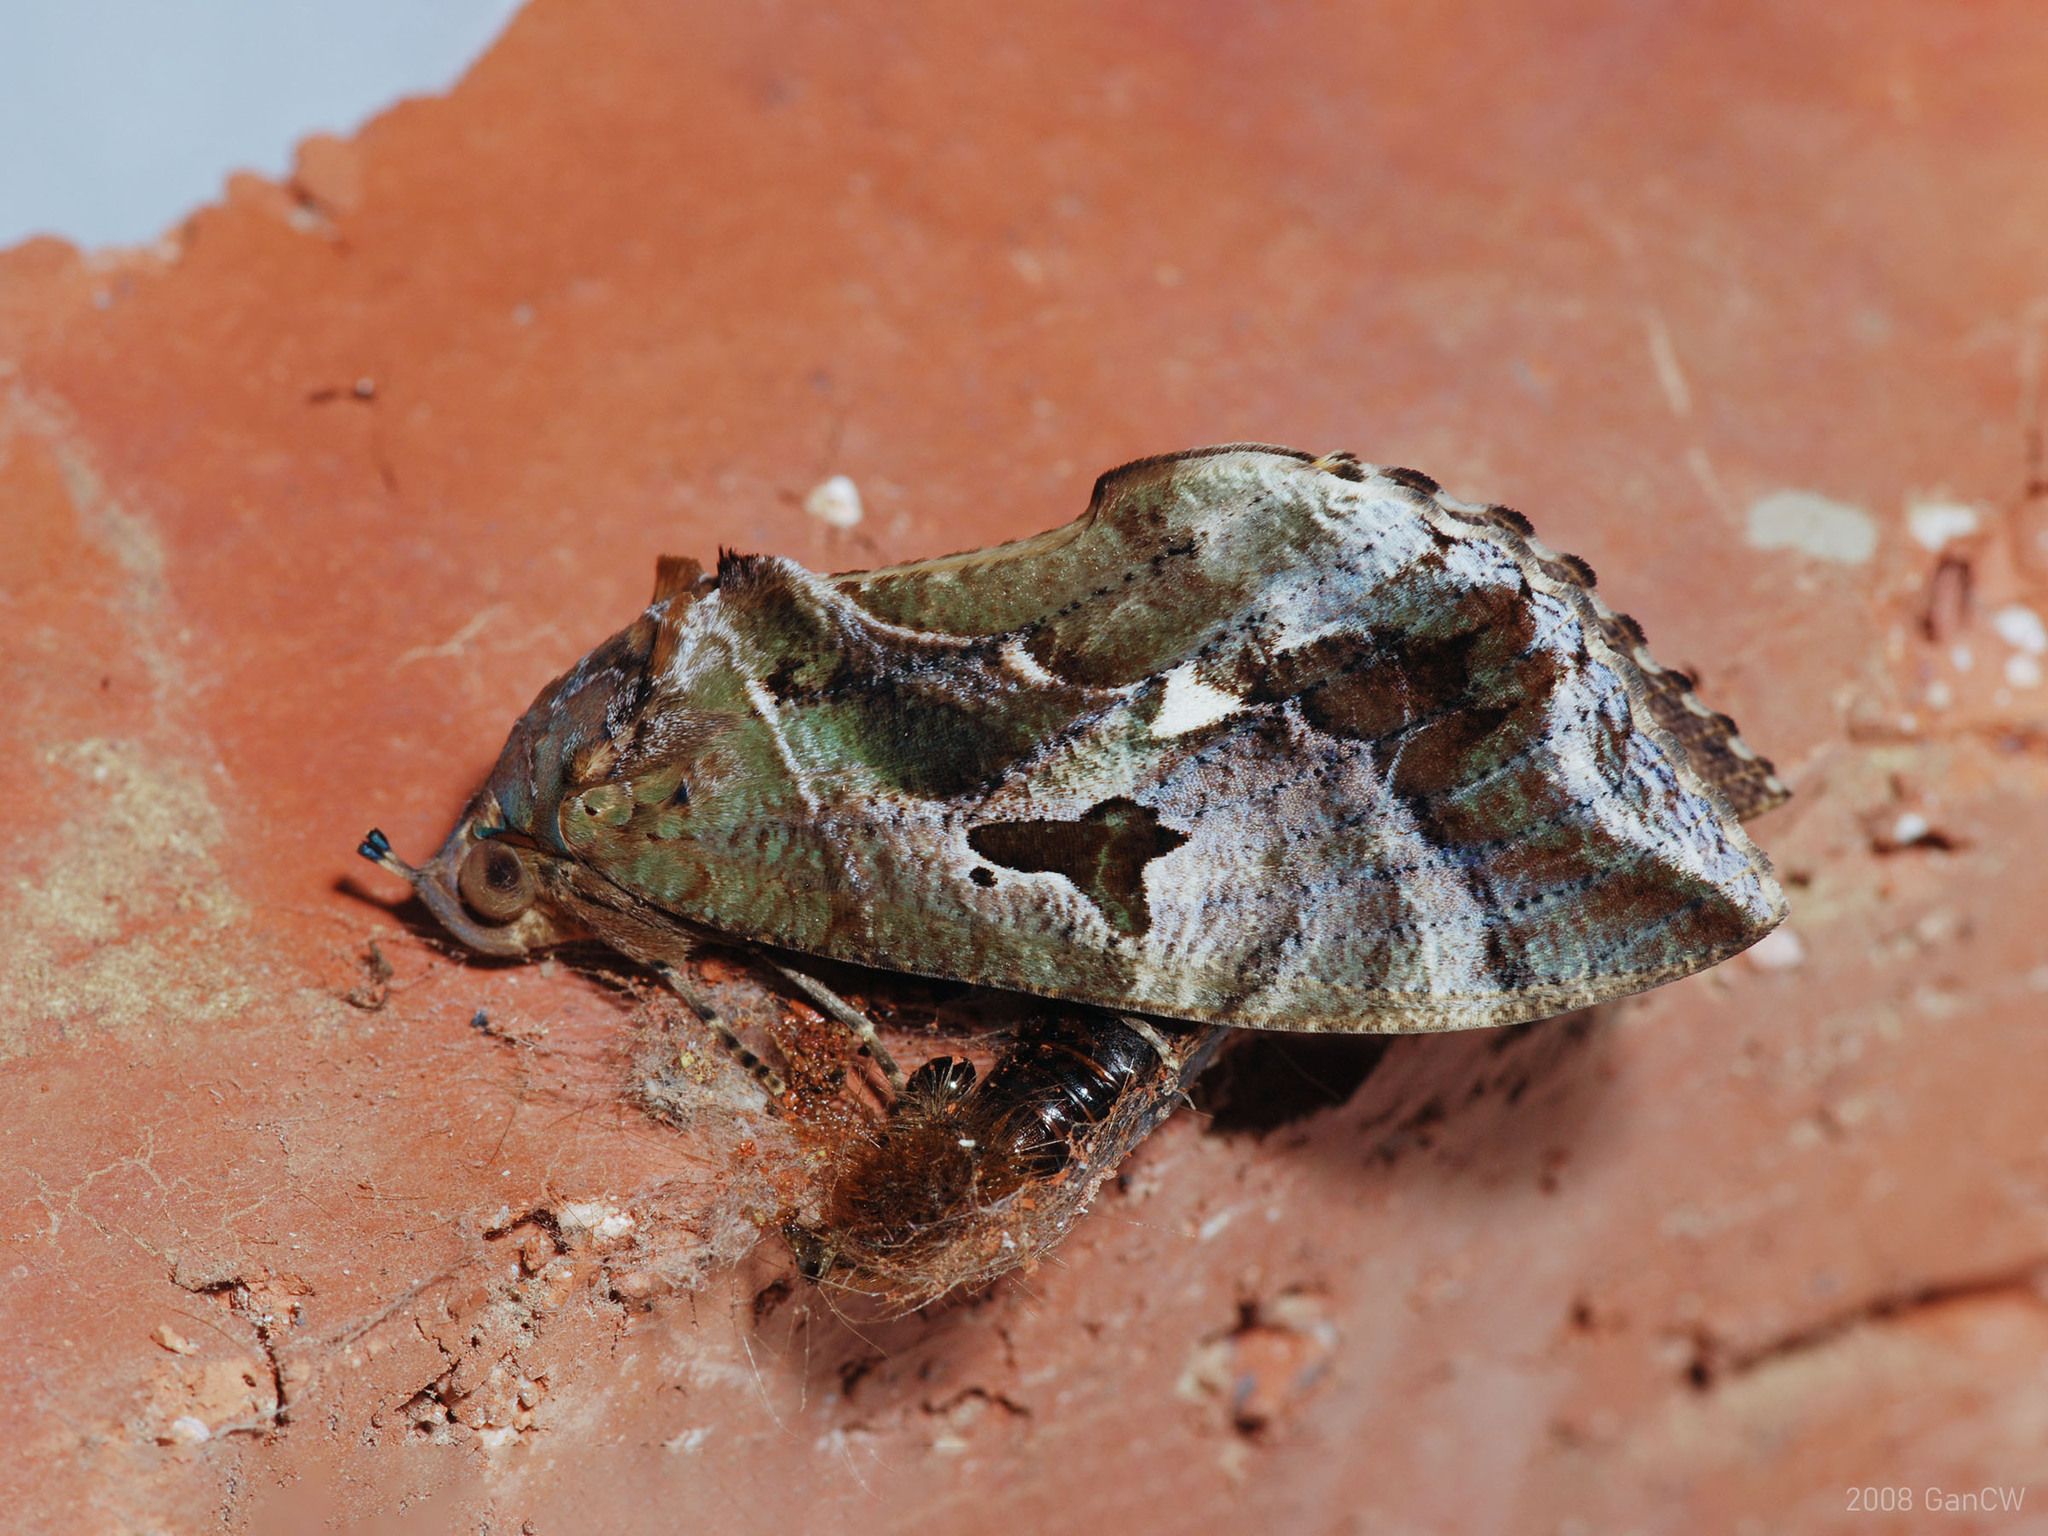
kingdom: Animalia
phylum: Arthropoda
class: Insecta
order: Lepidoptera
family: Erebidae
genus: Eudocima
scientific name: Eudocima phalonia
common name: Wasp
